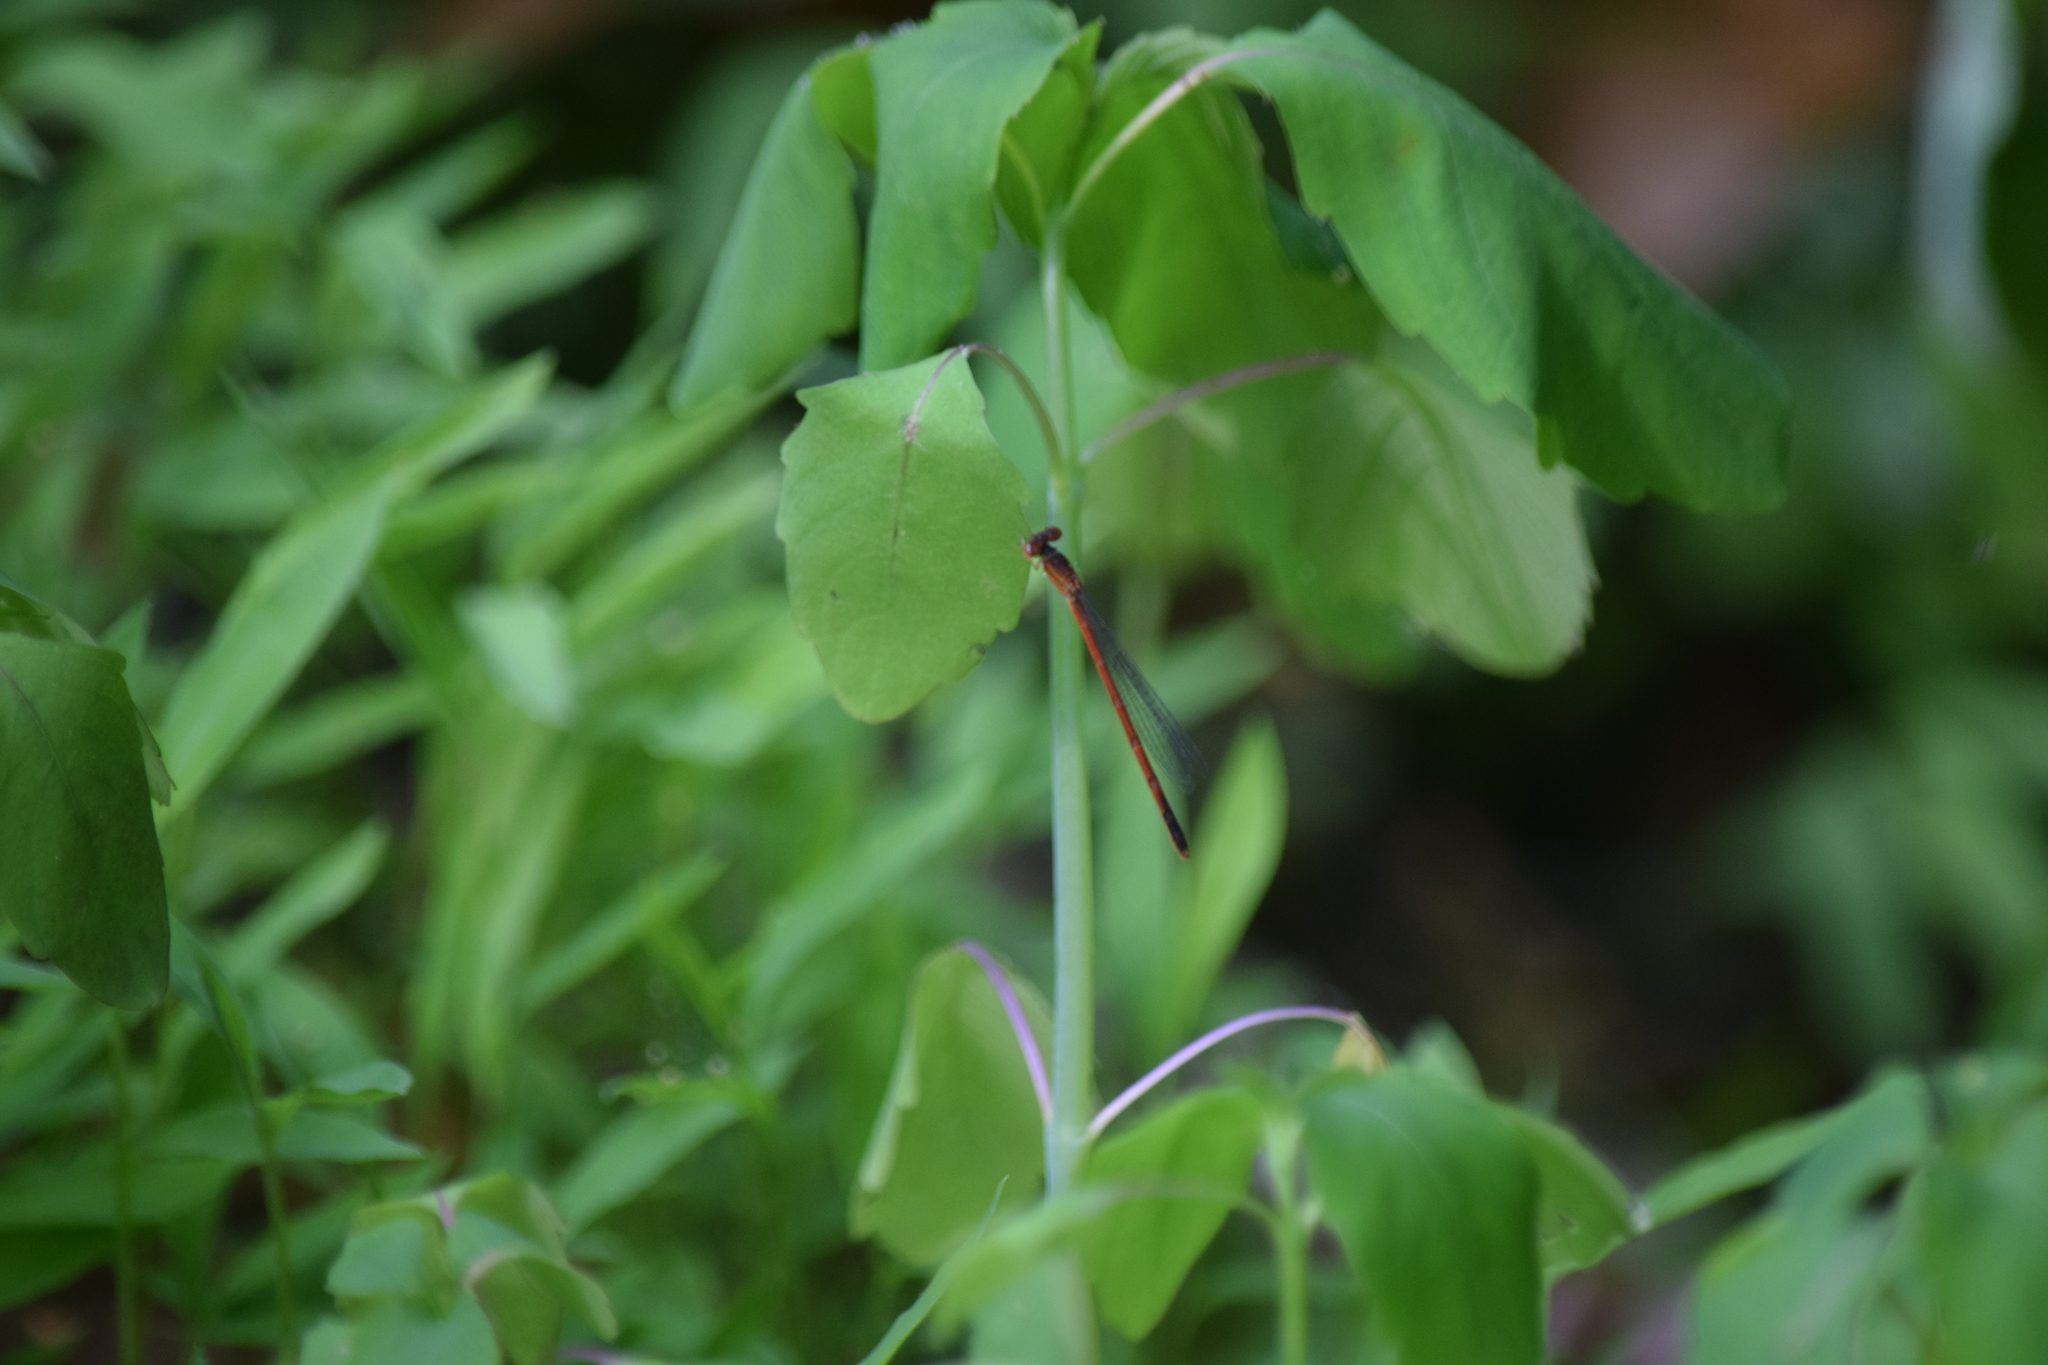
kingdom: Animalia
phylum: Arthropoda
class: Insecta
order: Odonata
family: Coenagrionidae
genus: Amphiagrion
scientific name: Amphiagrion saucium
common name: Eastern red damsel
